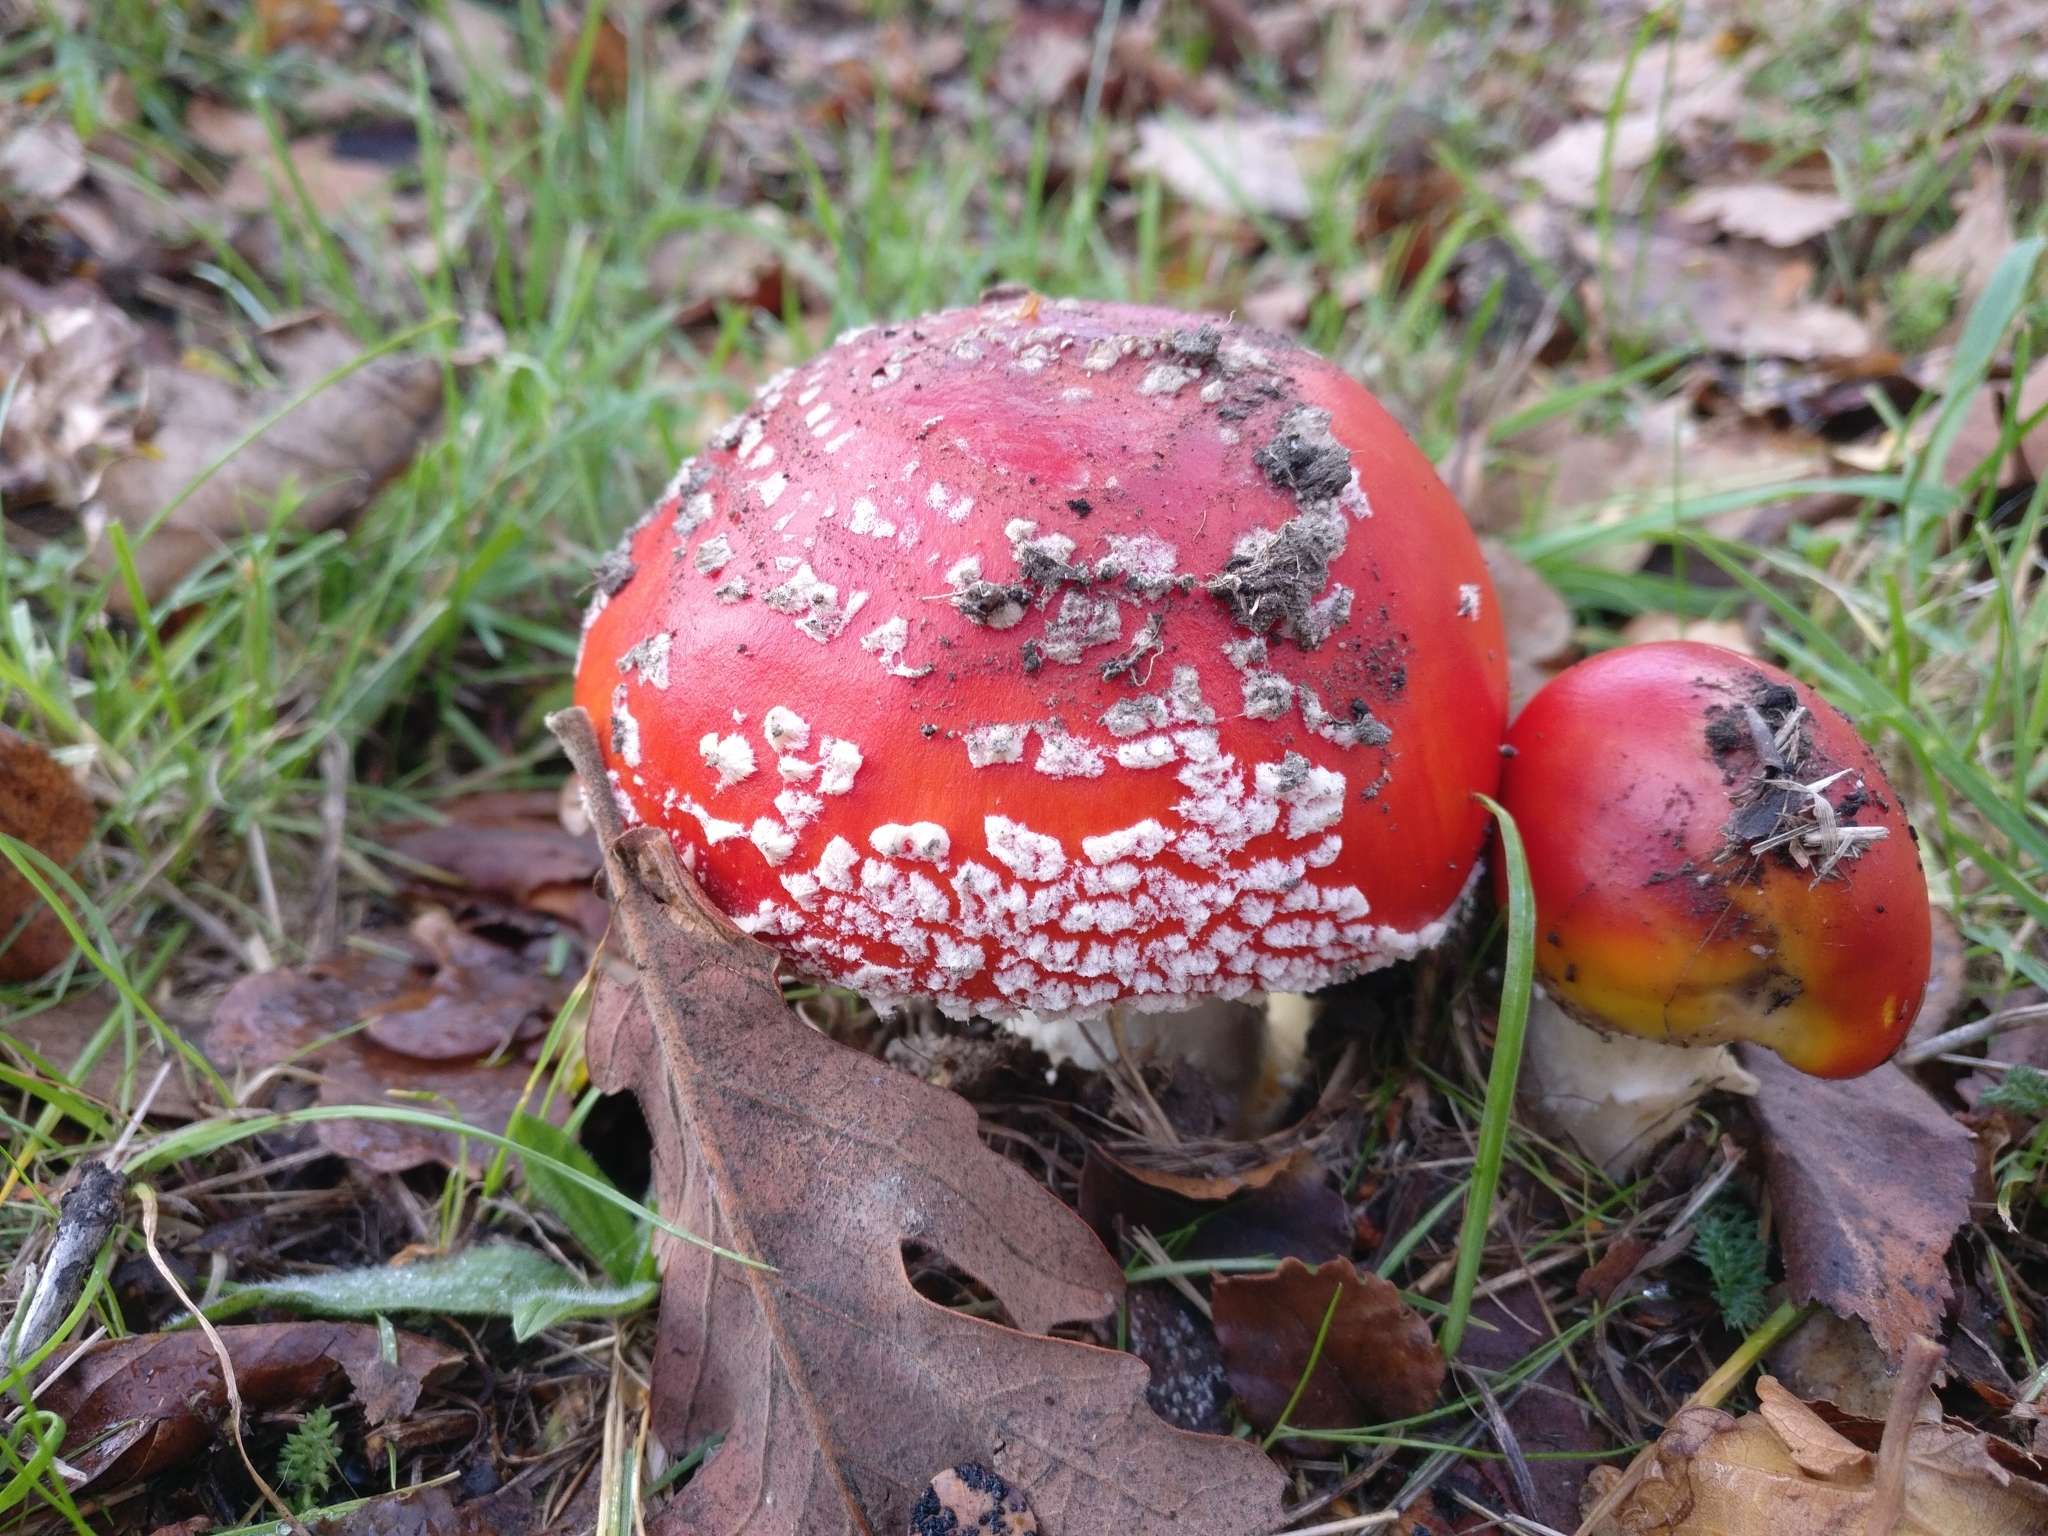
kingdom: Fungi
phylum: Basidiomycota
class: Agaricomycetes
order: Agaricales
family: Amanitaceae
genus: Amanita
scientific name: Amanita muscaria
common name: Fly agaric
